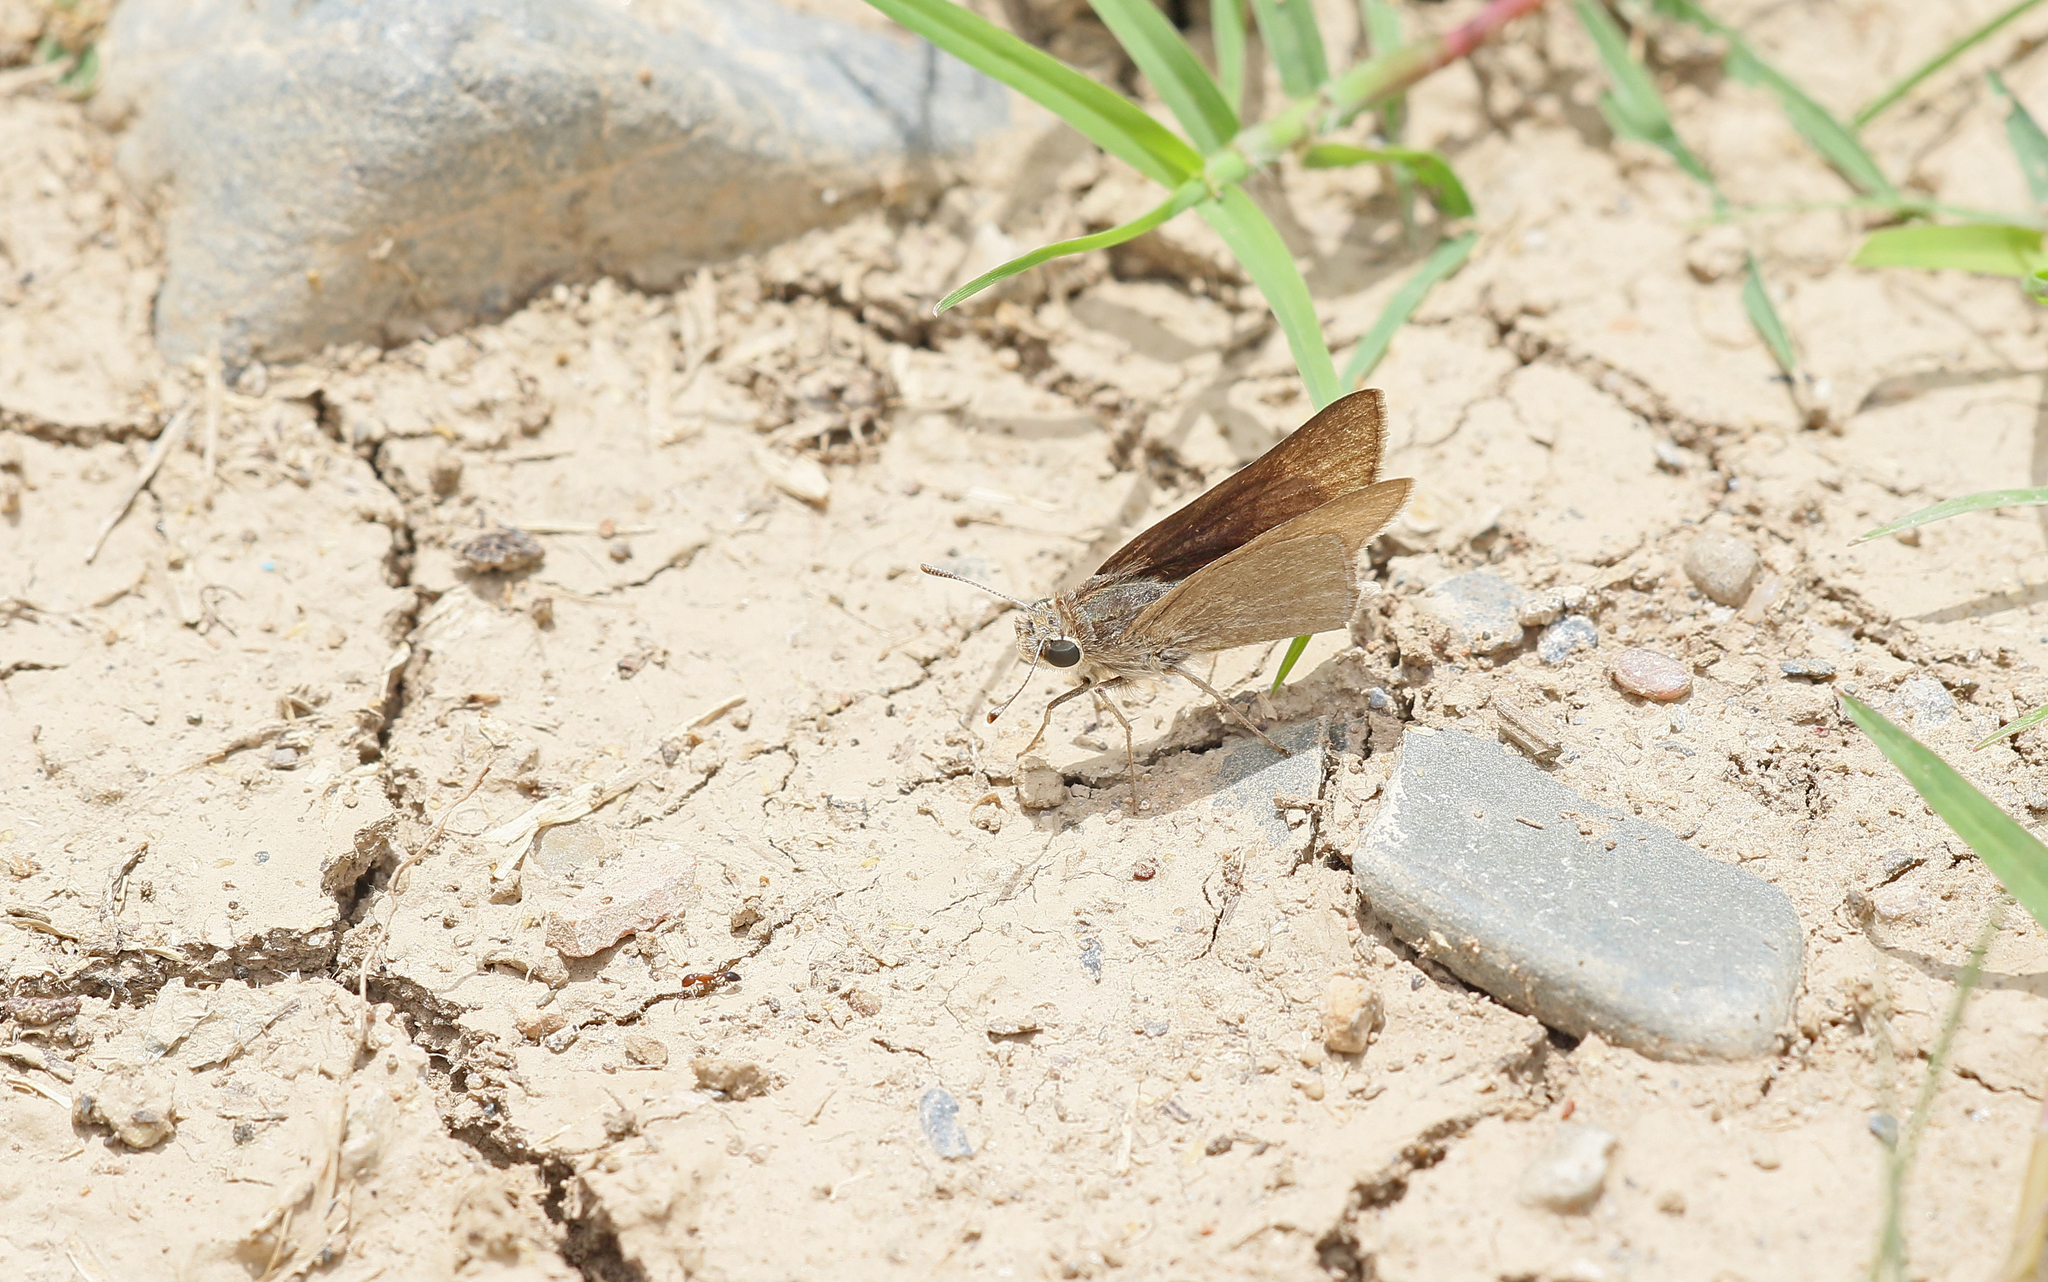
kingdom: Animalia
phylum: Arthropoda
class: Insecta
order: Lepidoptera
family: Hesperiidae
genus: Gegenes
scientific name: Gegenes nostrodamus
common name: Mediterranean skipper
